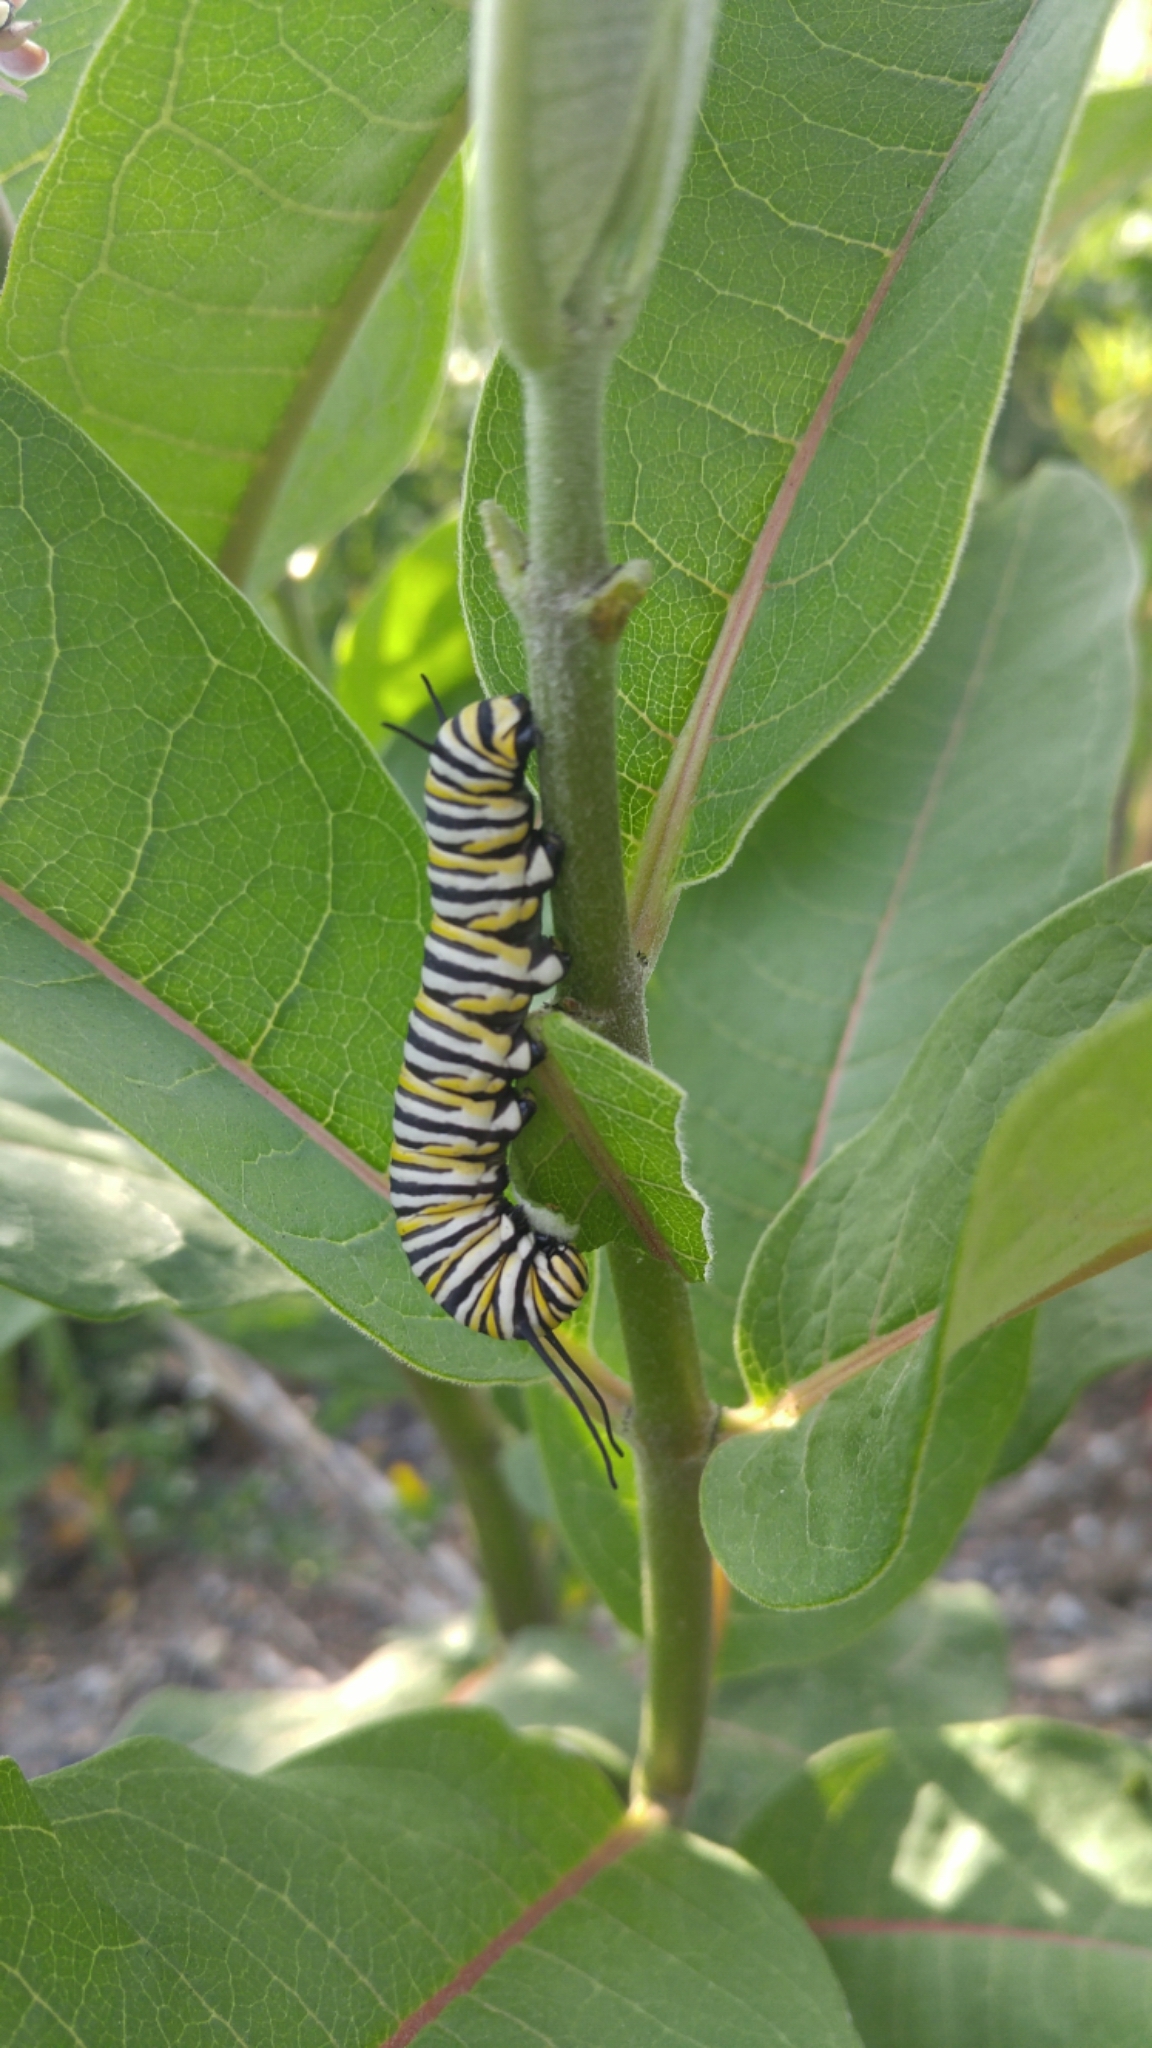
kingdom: Animalia
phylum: Arthropoda
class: Insecta
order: Lepidoptera
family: Nymphalidae
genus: Danaus
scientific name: Danaus plexippus
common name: Monarch
